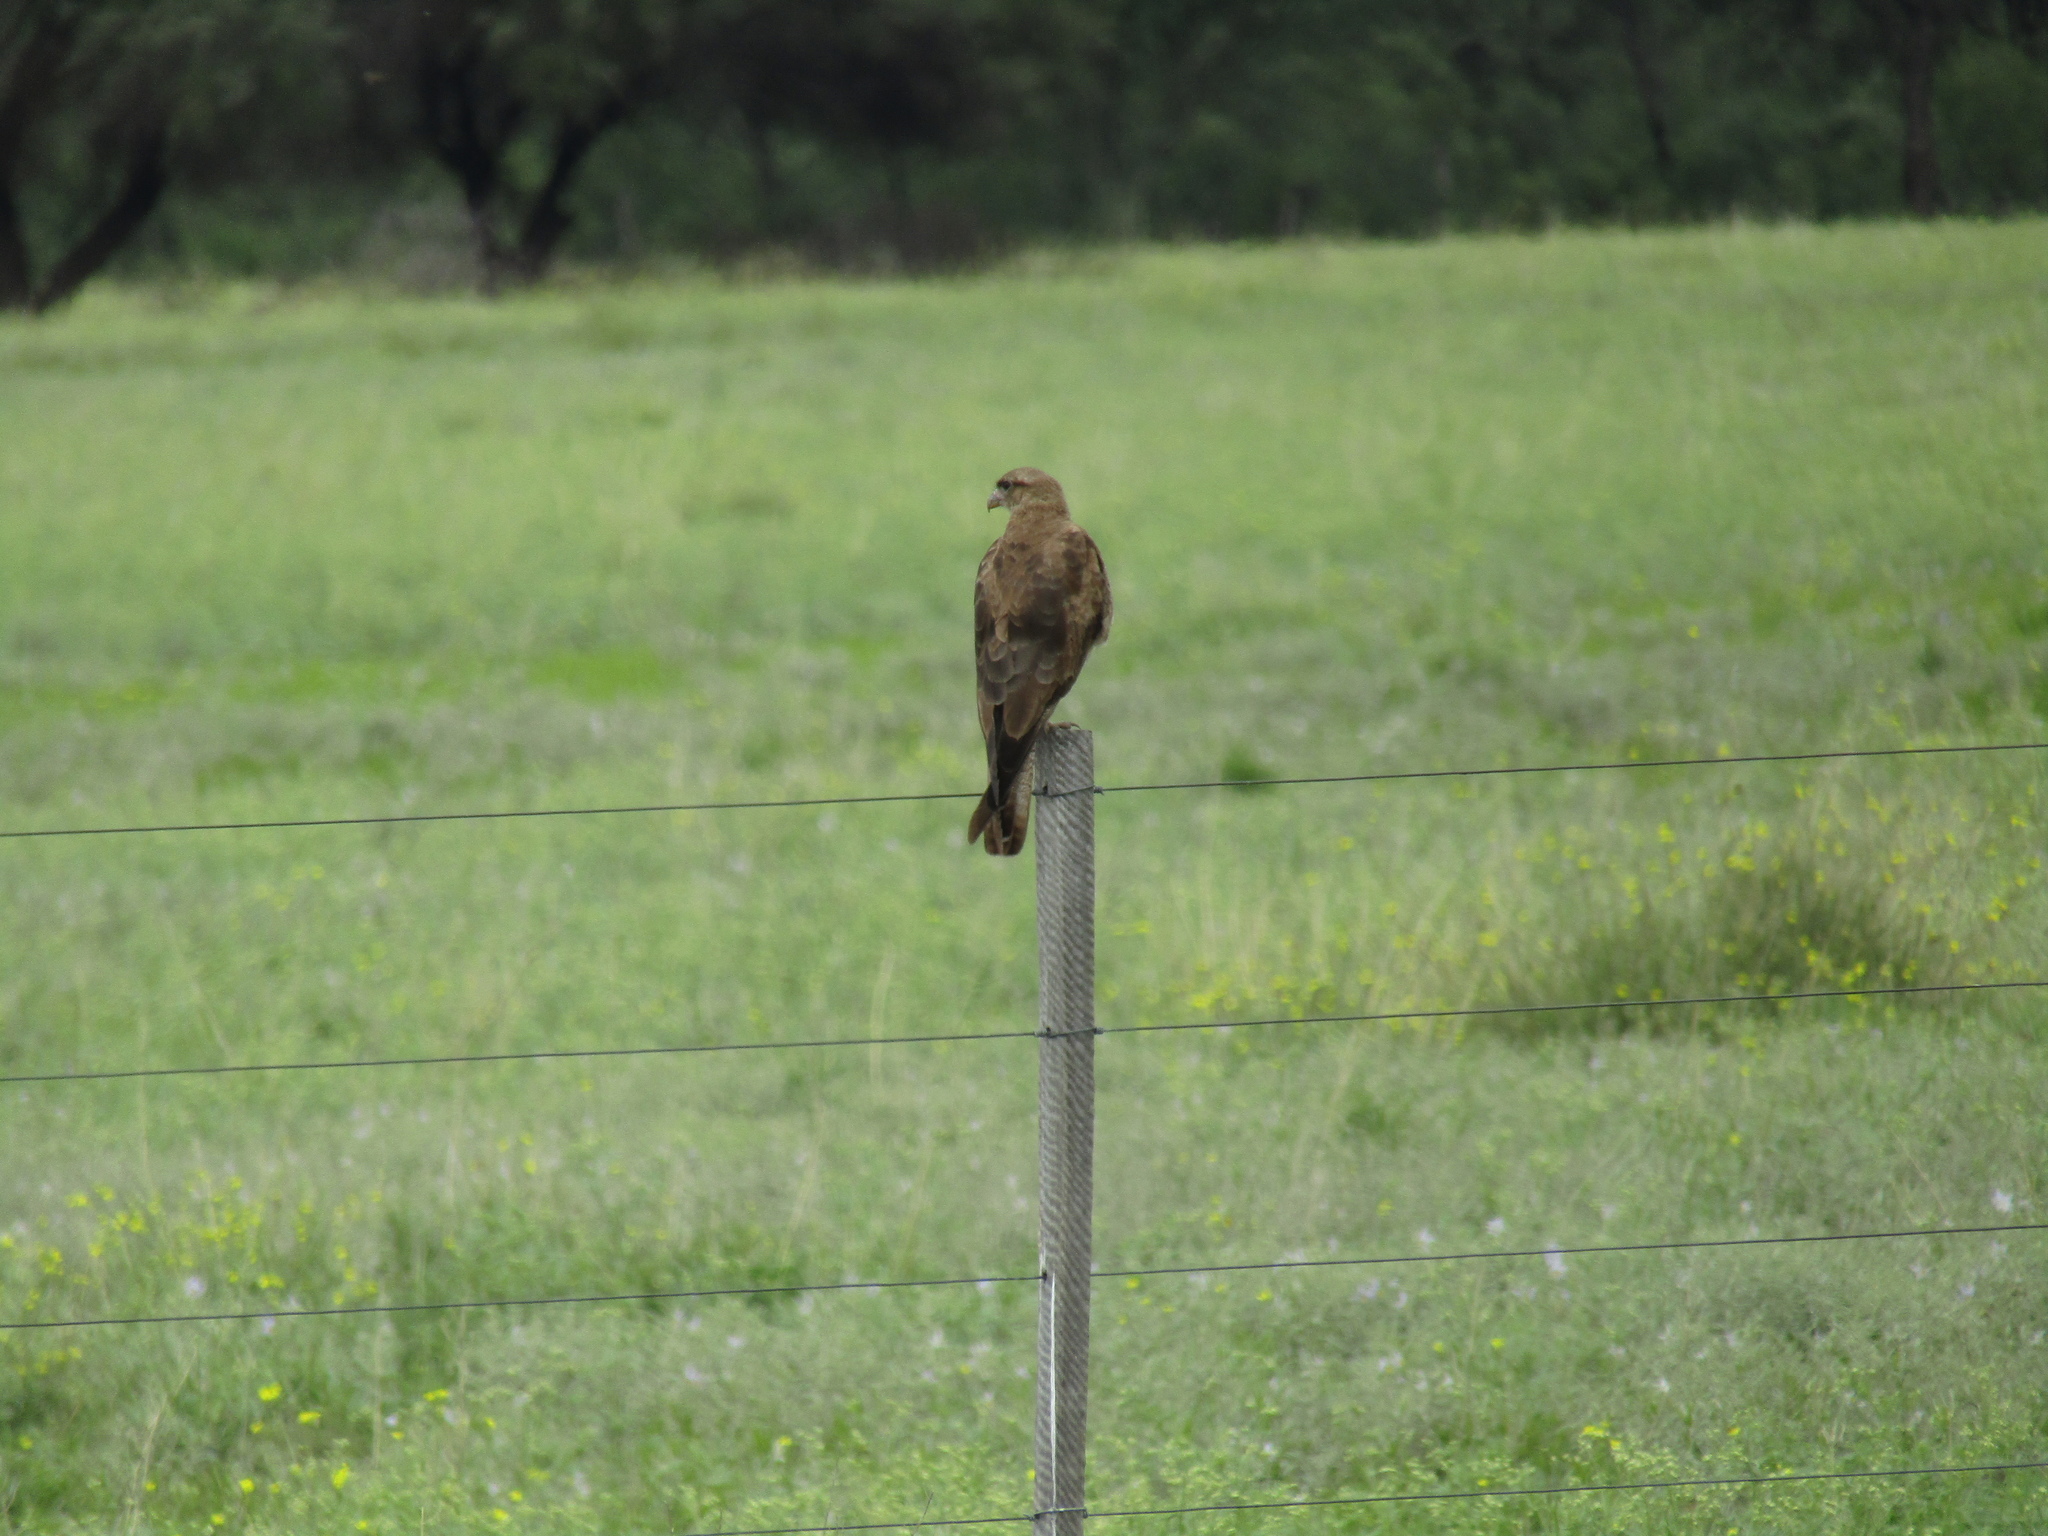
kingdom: Animalia
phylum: Chordata
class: Aves
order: Falconiformes
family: Falconidae
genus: Daptrius
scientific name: Daptrius
